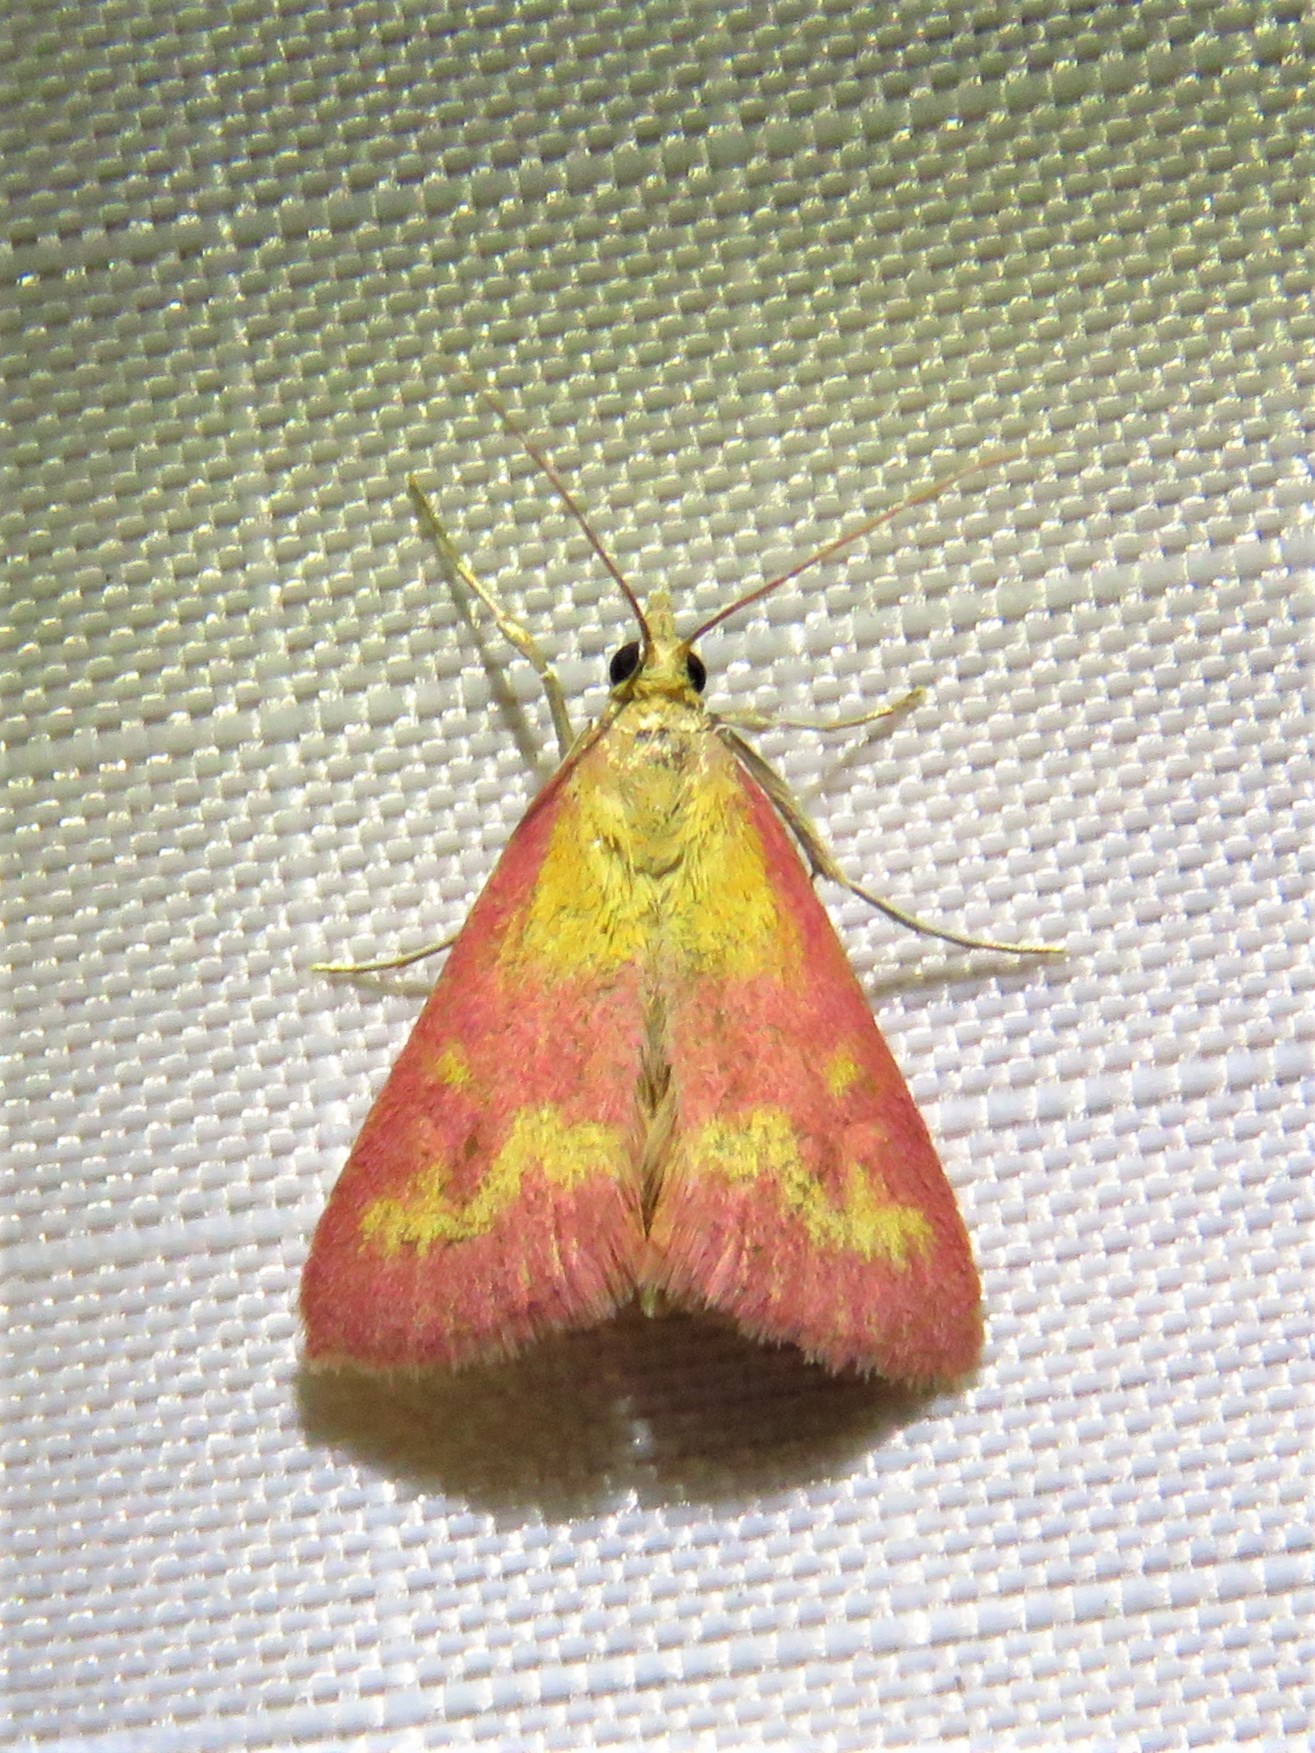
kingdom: Animalia
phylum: Arthropoda
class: Insecta
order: Lepidoptera
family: Crambidae
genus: Pyrausta
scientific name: Pyrausta laticlavia
